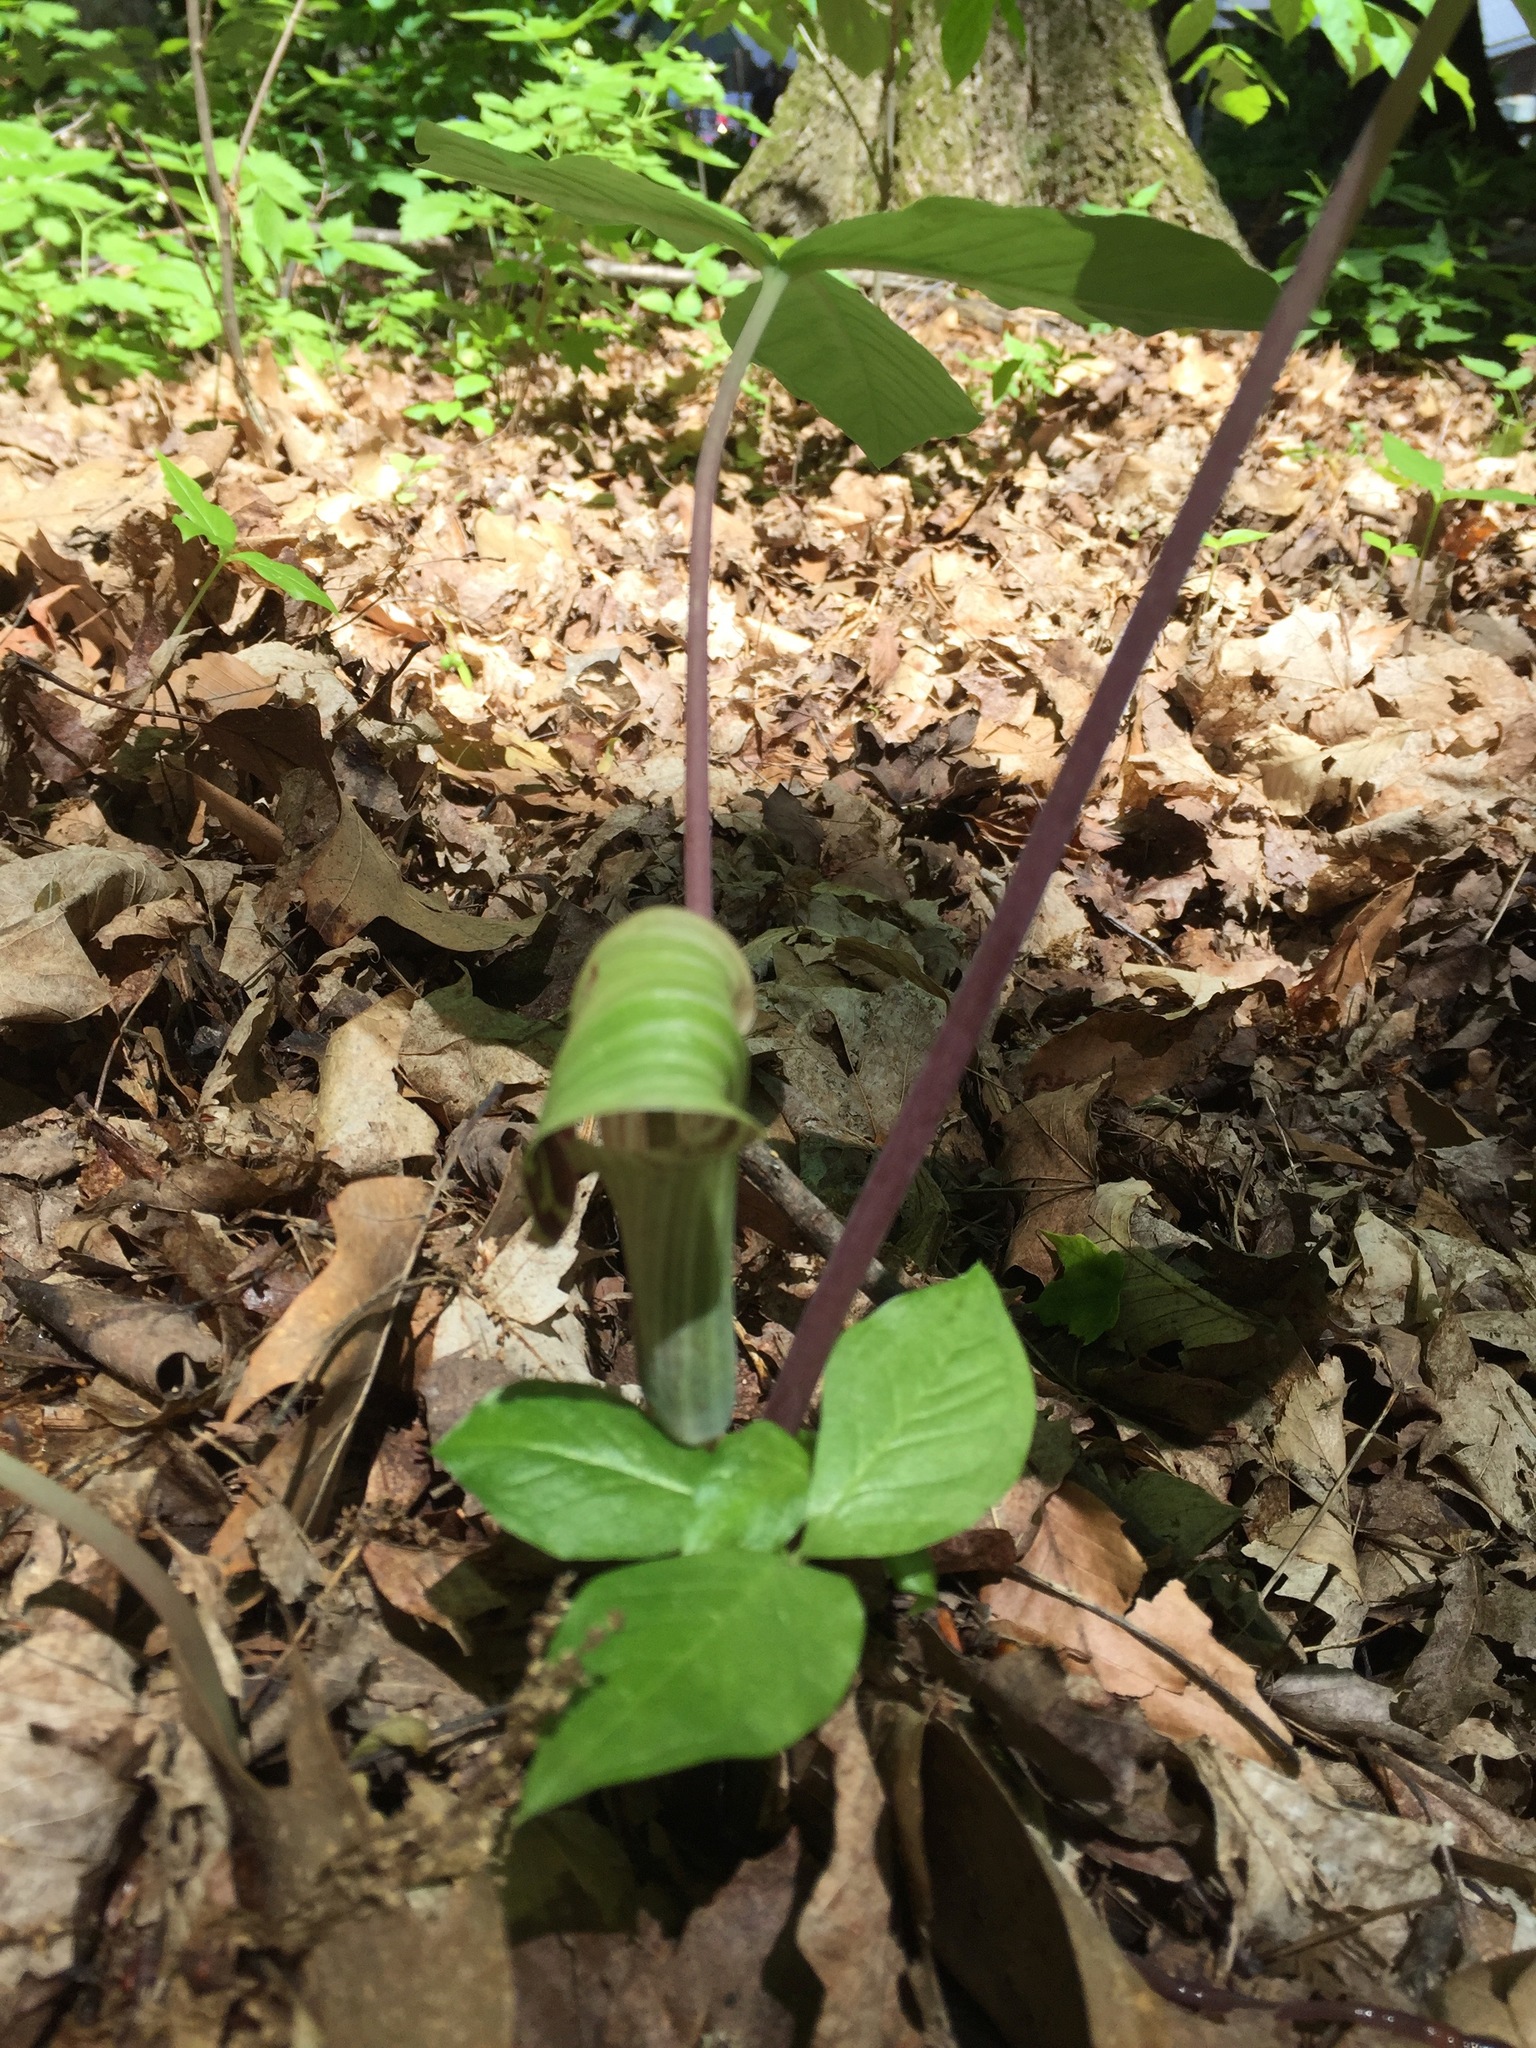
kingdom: Plantae
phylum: Tracheophyta
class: Liliopsida
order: Alismatales
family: Araceae
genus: Arisaema
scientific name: Arisaema triphyllum
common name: Jack-in-the-pulpit
